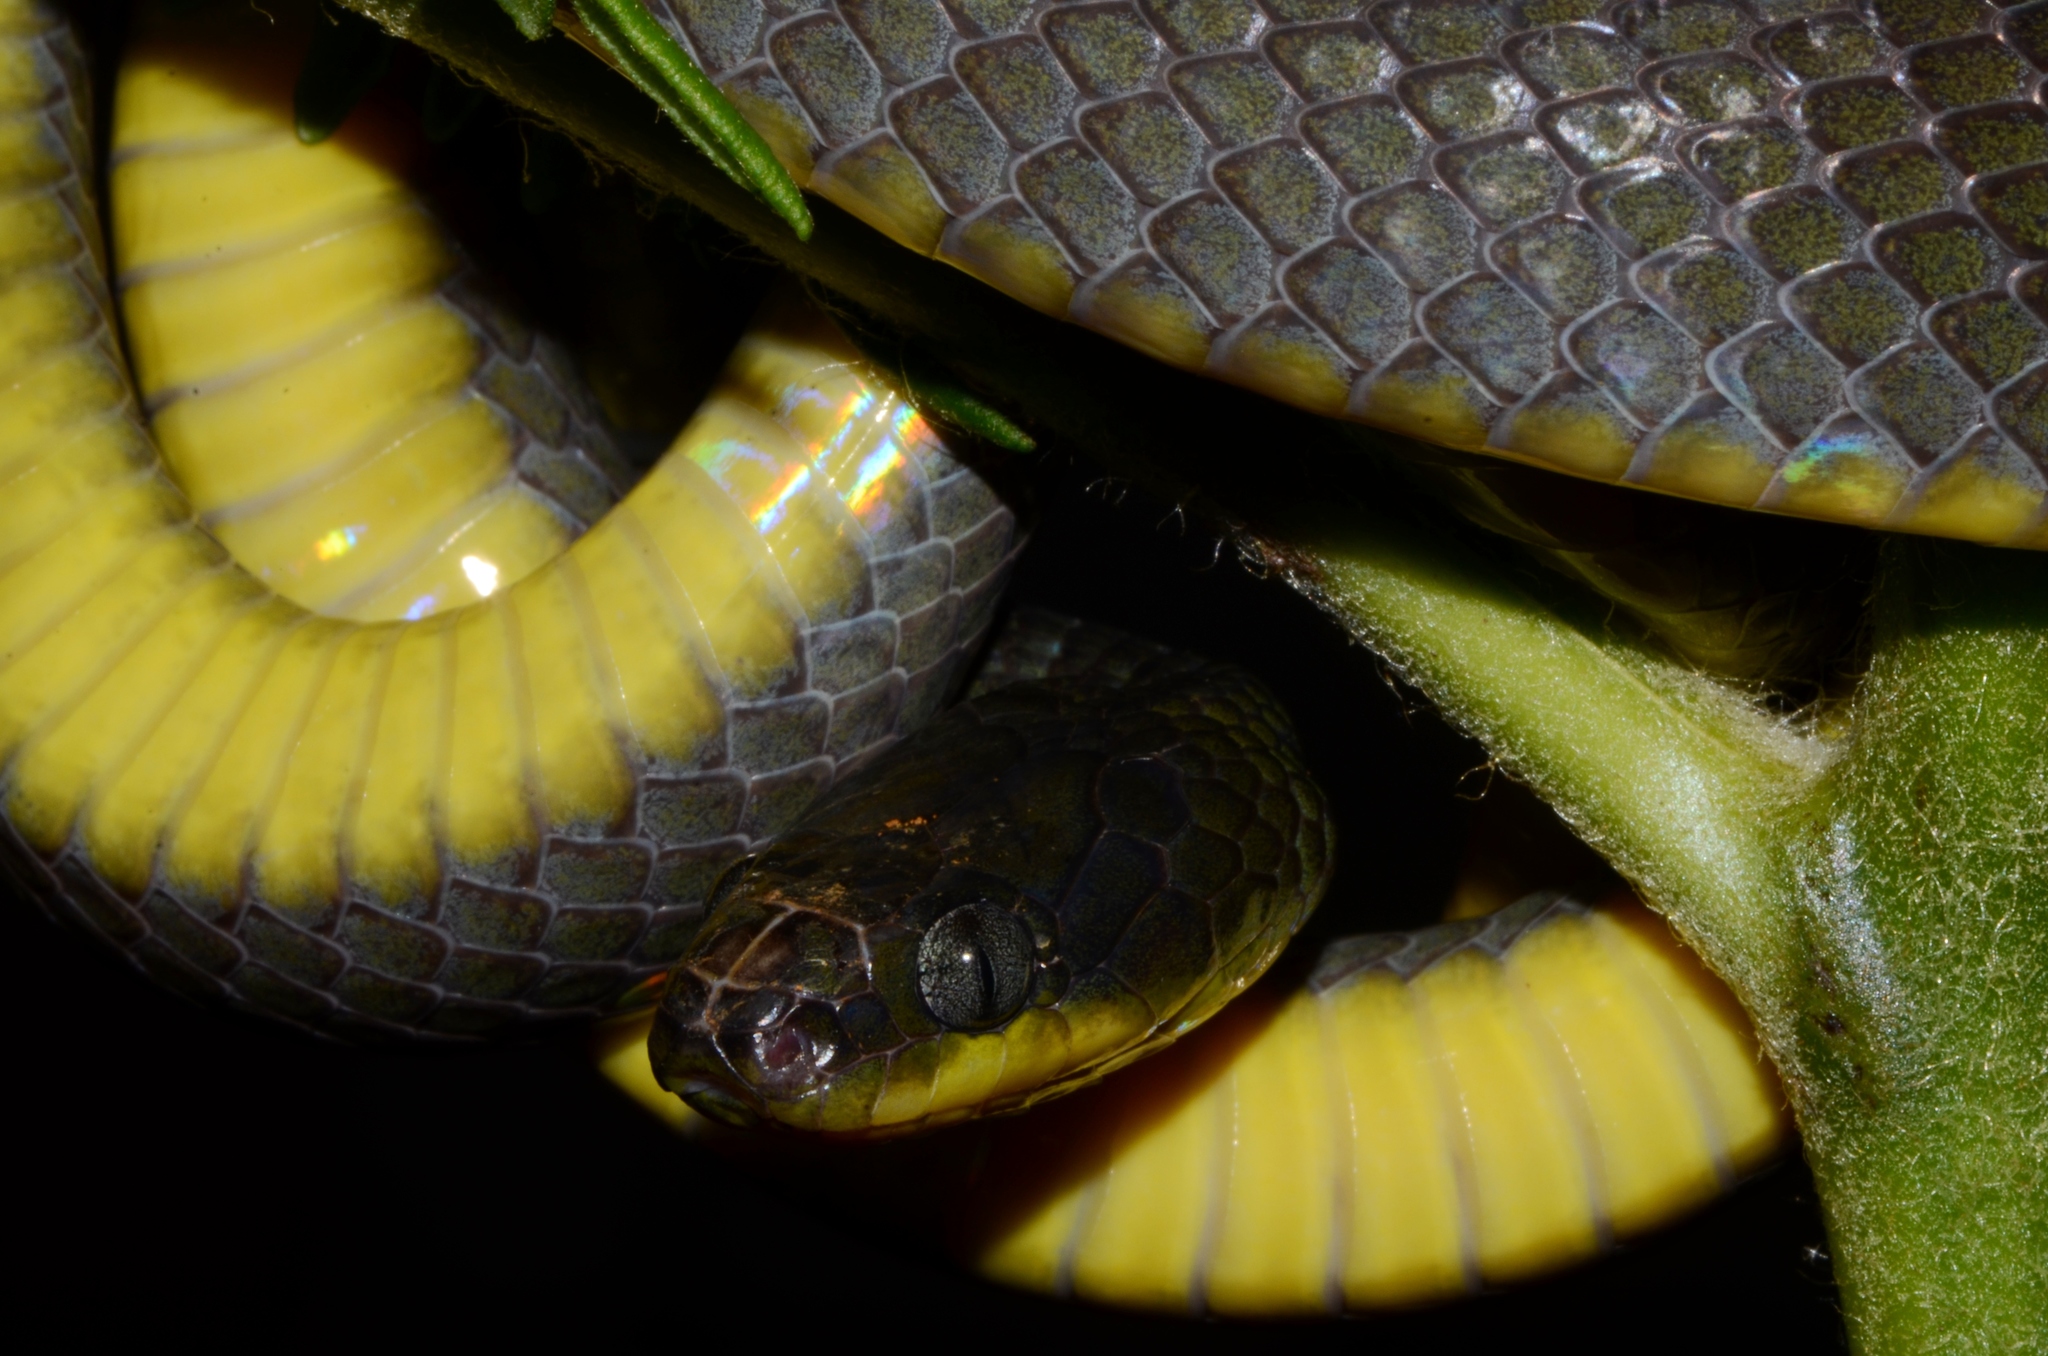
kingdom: Animalia
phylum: Chordata
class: Squamata
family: Colubridae
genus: Dipsadoboa
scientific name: Dipsadoboa underwoodi
